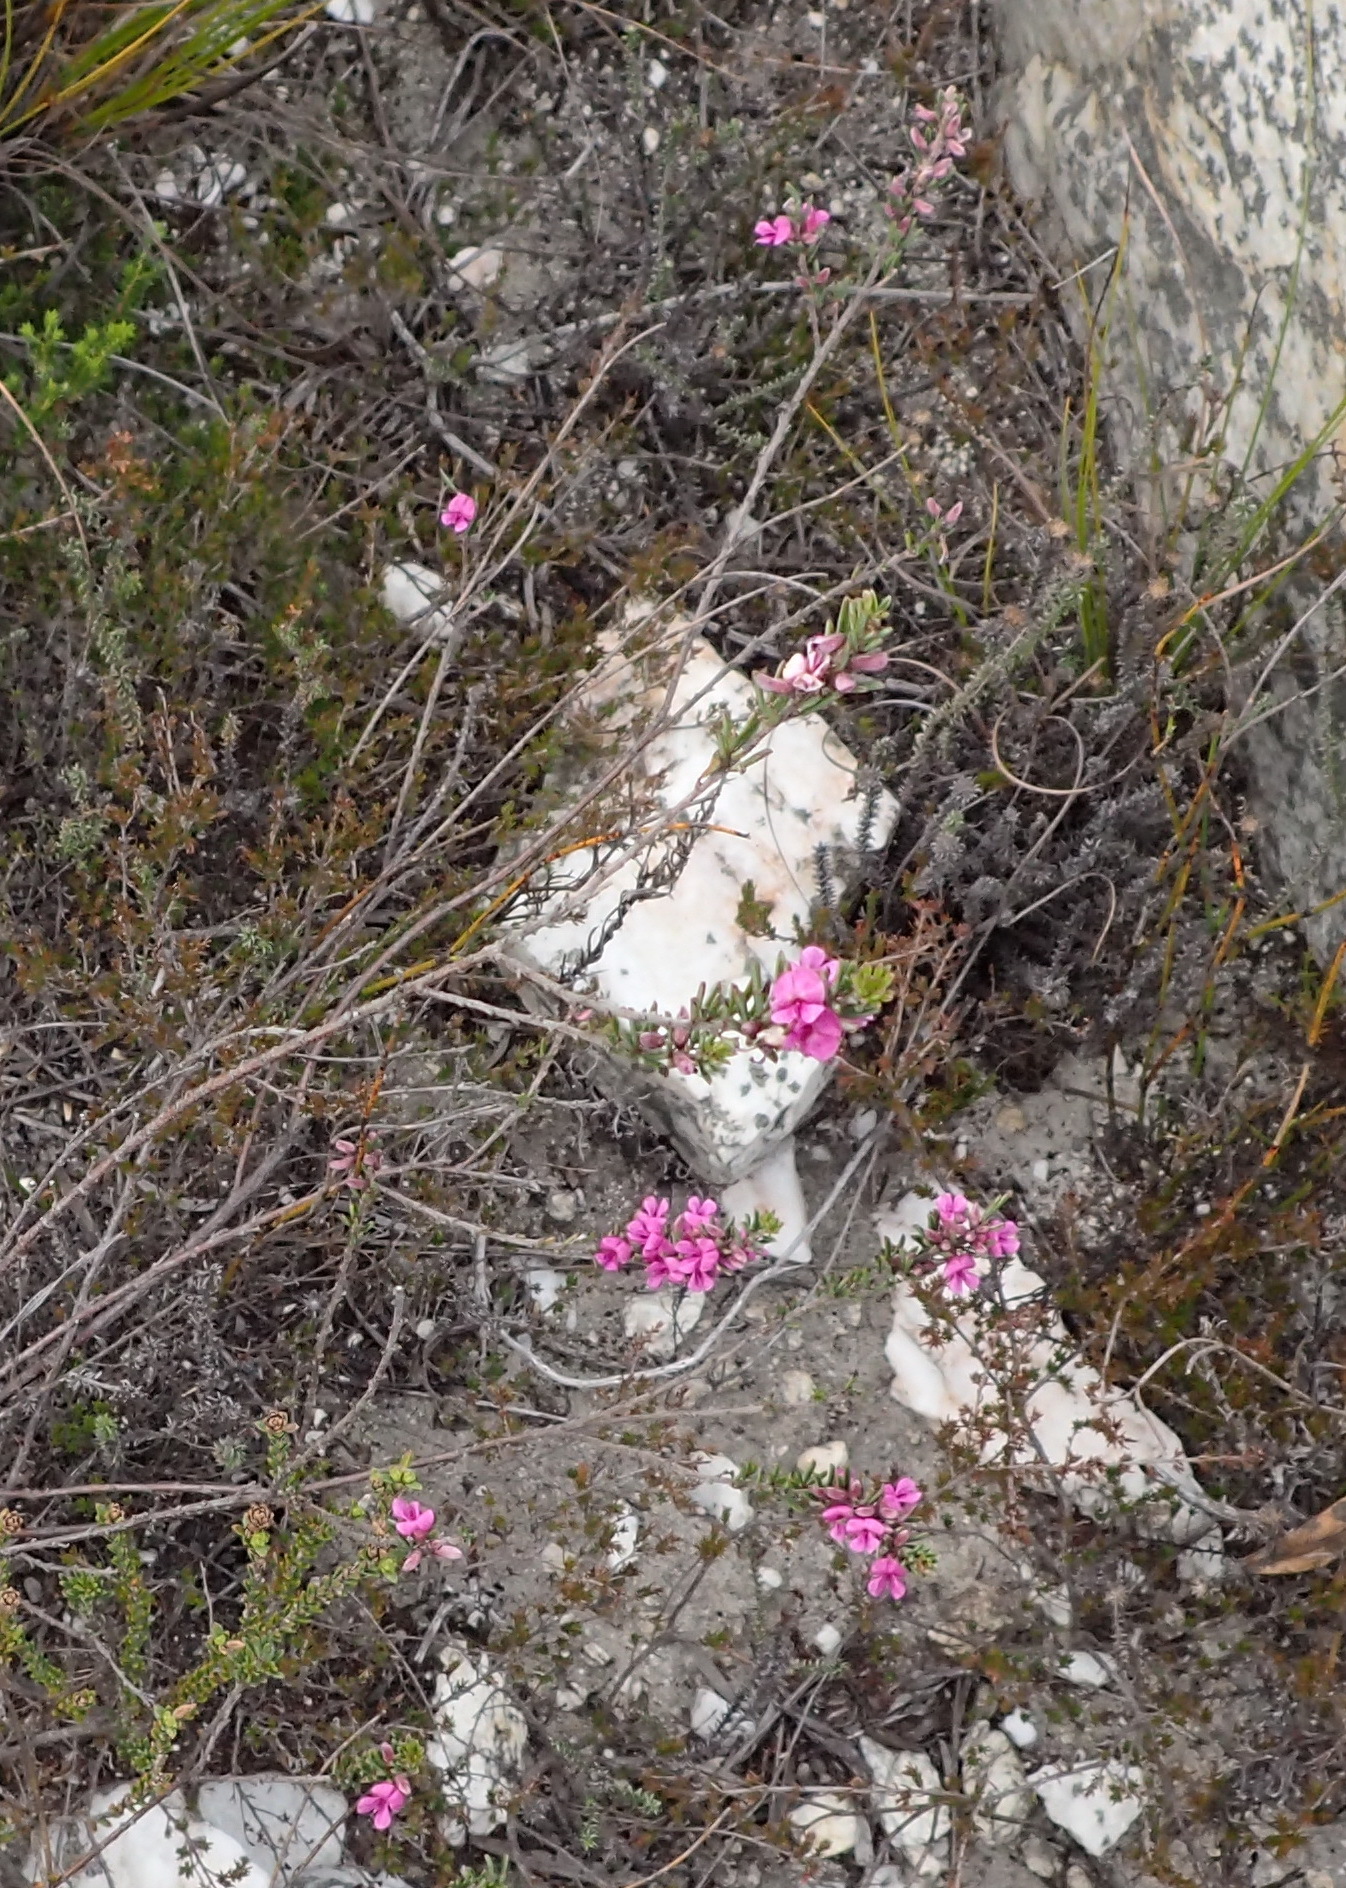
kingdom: Plantae
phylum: Tracheophyta
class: Magnoliopsida
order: Fabales
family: Fabaceae
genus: Indigofera
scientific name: Indigofera pappei
